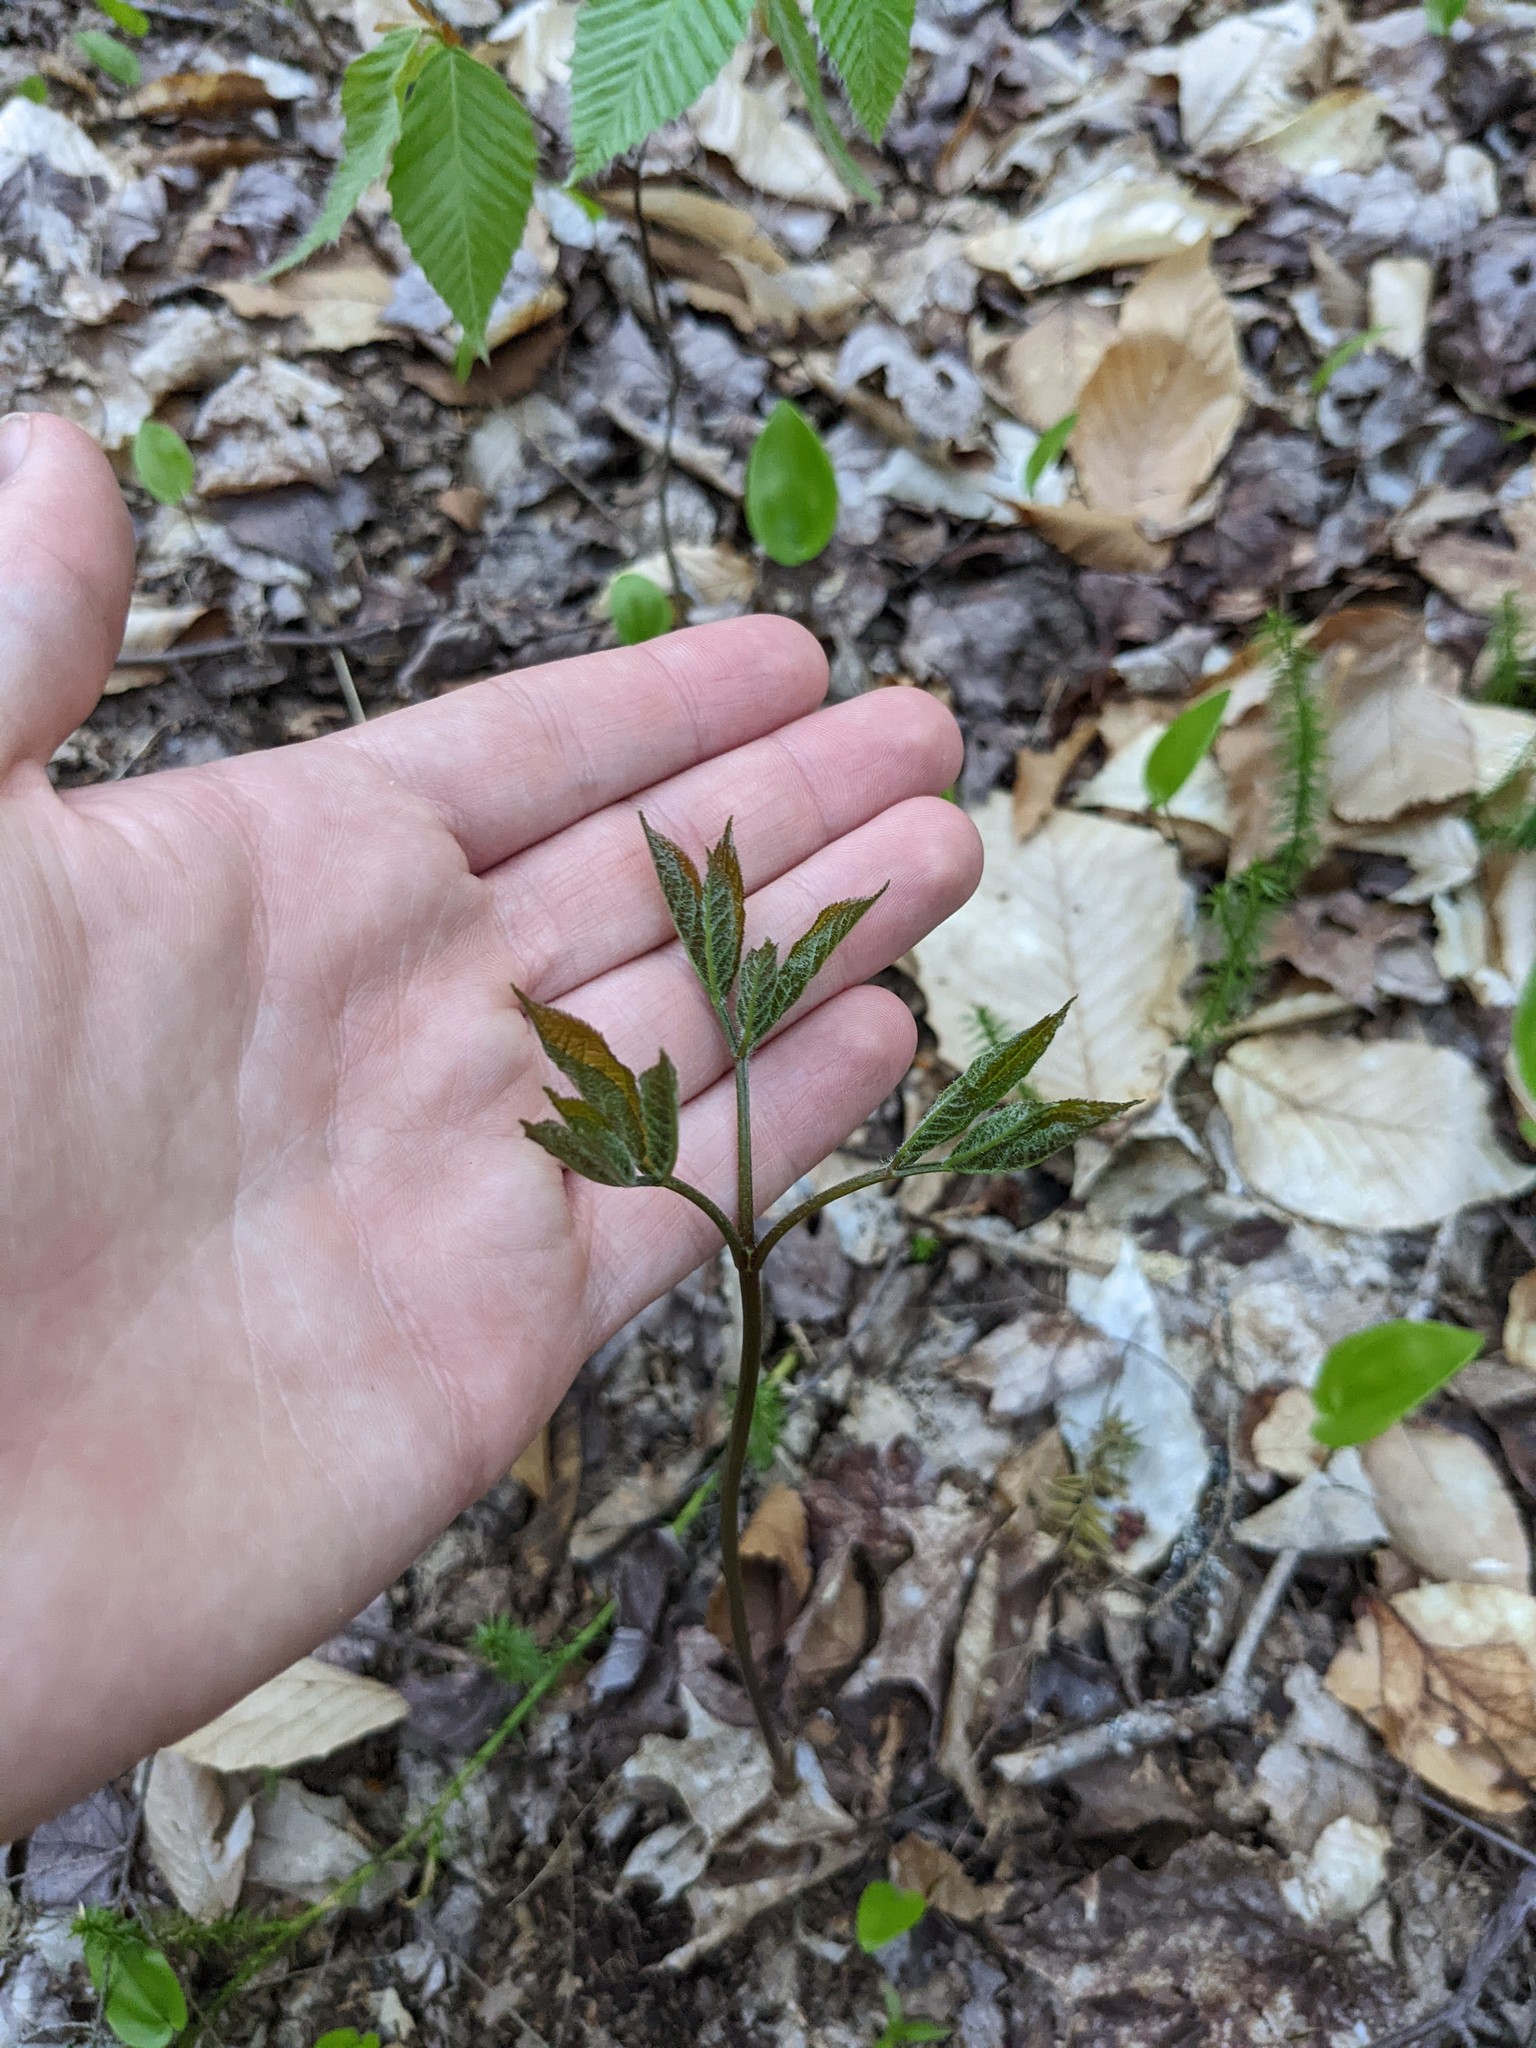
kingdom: Plantae
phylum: Tracheophyta
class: Magnoliopsida
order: Apiales
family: Araliaceae
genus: Aralia
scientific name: Aralia nudicaulis
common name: Wild sarsaparilla
